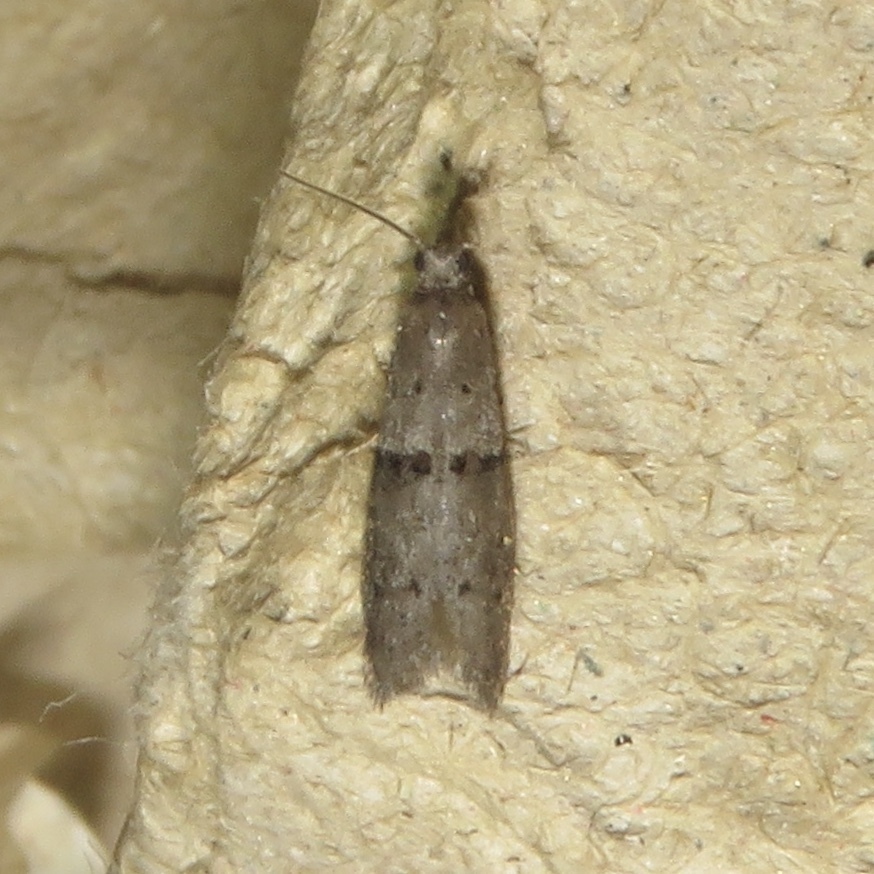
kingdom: Animalia
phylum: Arthropoda
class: Insecta
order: Lepidoptera
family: Urodidae
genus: Wockia
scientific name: Wockia asperipunctella
